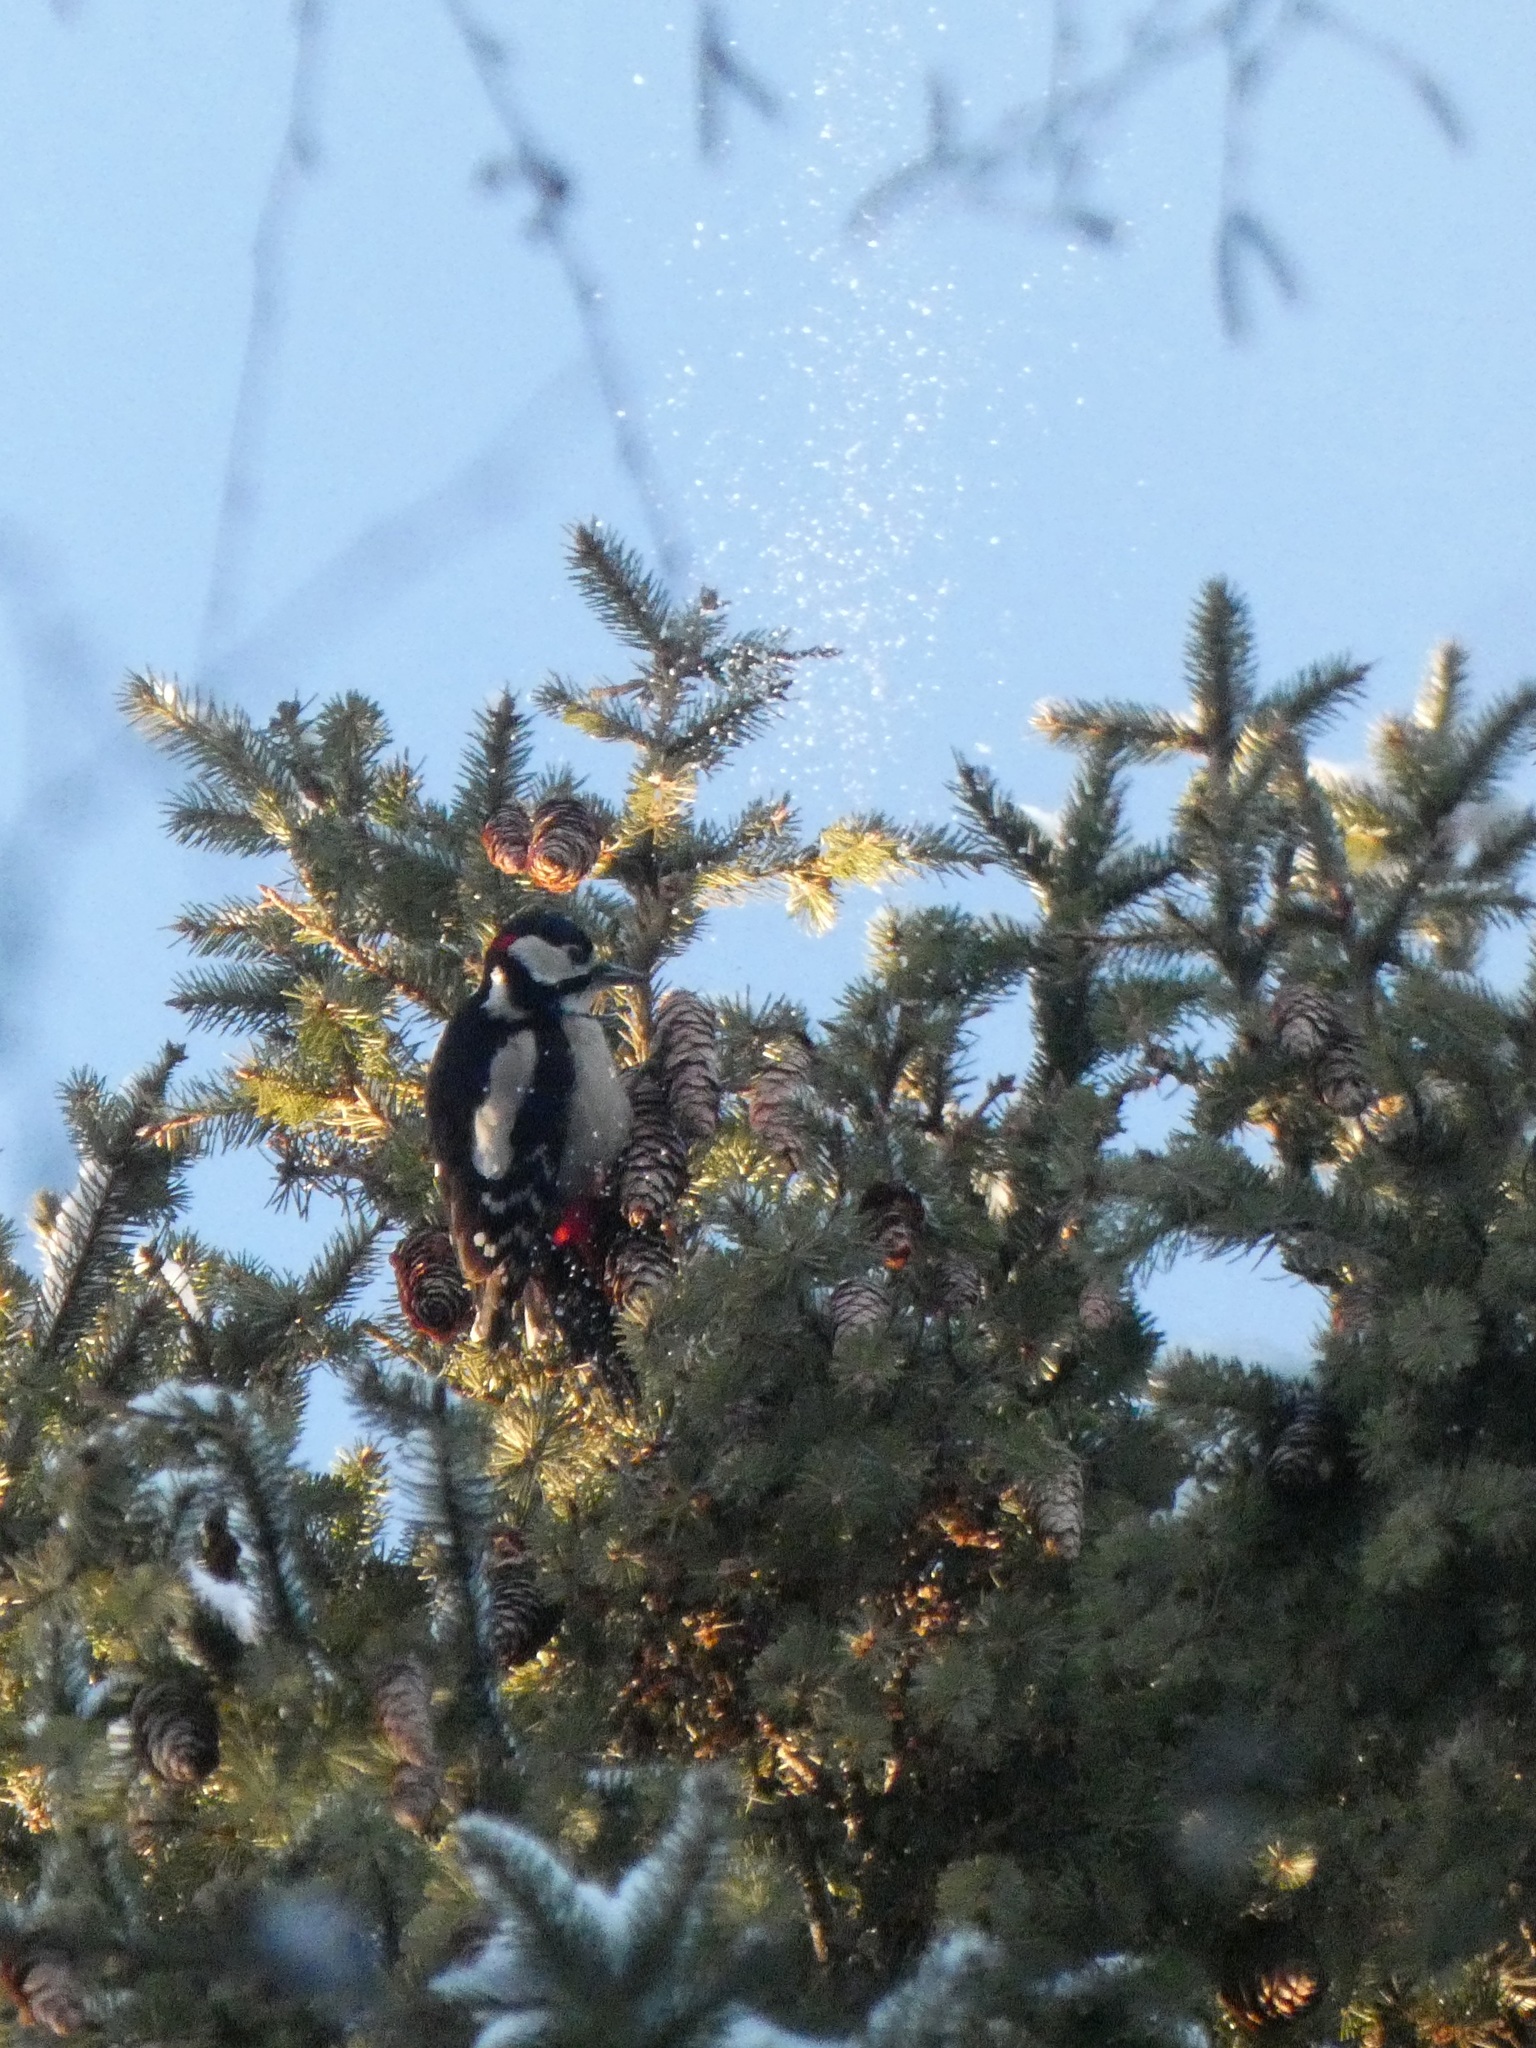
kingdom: Animalia
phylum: Chordata
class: Aves
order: Piciformes
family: Picidae
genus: Dendrocopos
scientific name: Dendrocopos major
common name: Great spotted woodpecker
